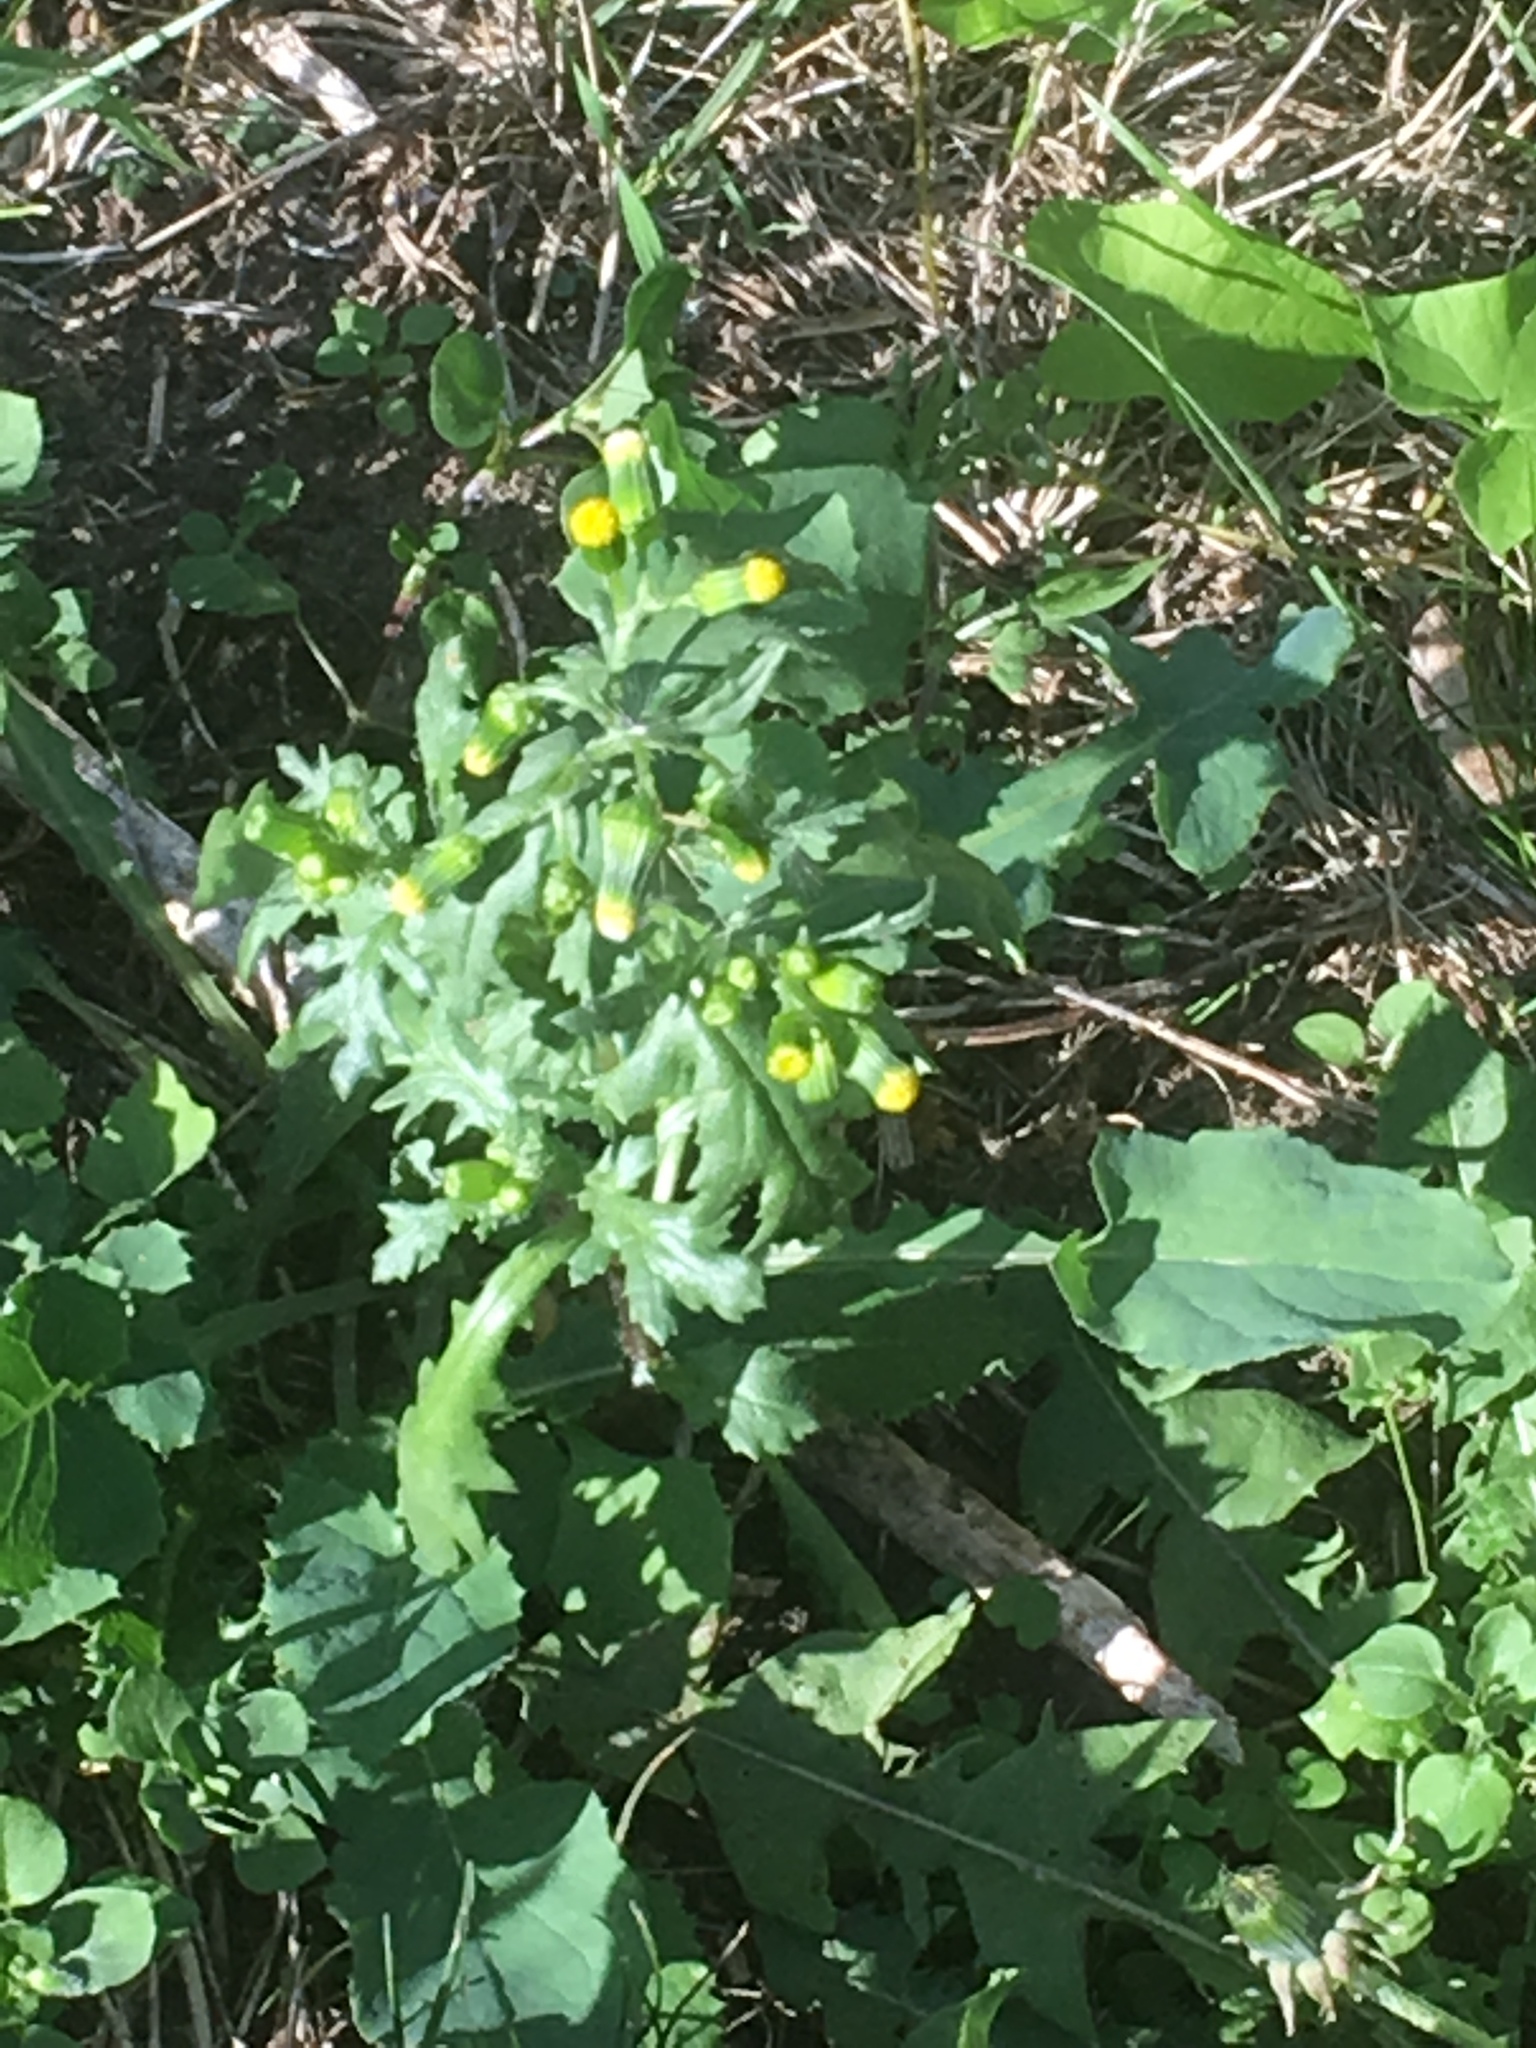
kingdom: Plantae
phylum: Tracheophyta
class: Magnoliopsida
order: Asterales
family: Asteraceae
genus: Senecio
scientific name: Senecio vulgaris
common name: Old-man-in-the-spring
